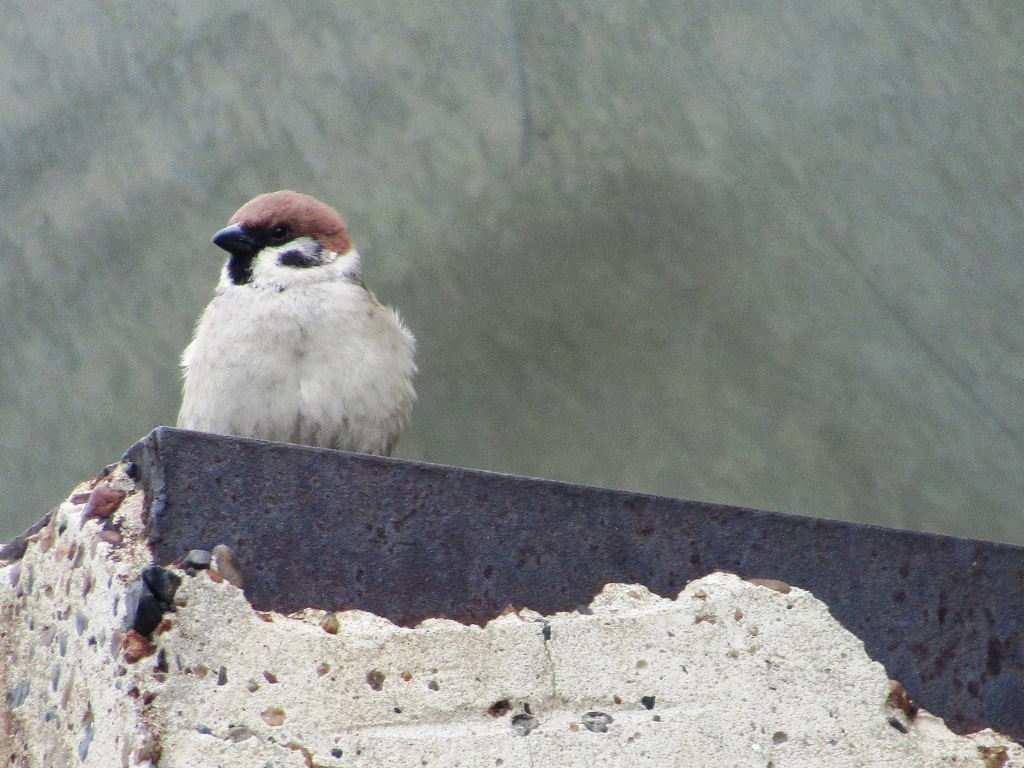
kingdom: Animalia
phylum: Chordata
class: Aves
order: Passeriformes
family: Passeridae
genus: Passer
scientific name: Passer montanus
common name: Eurasian tree sparrow
